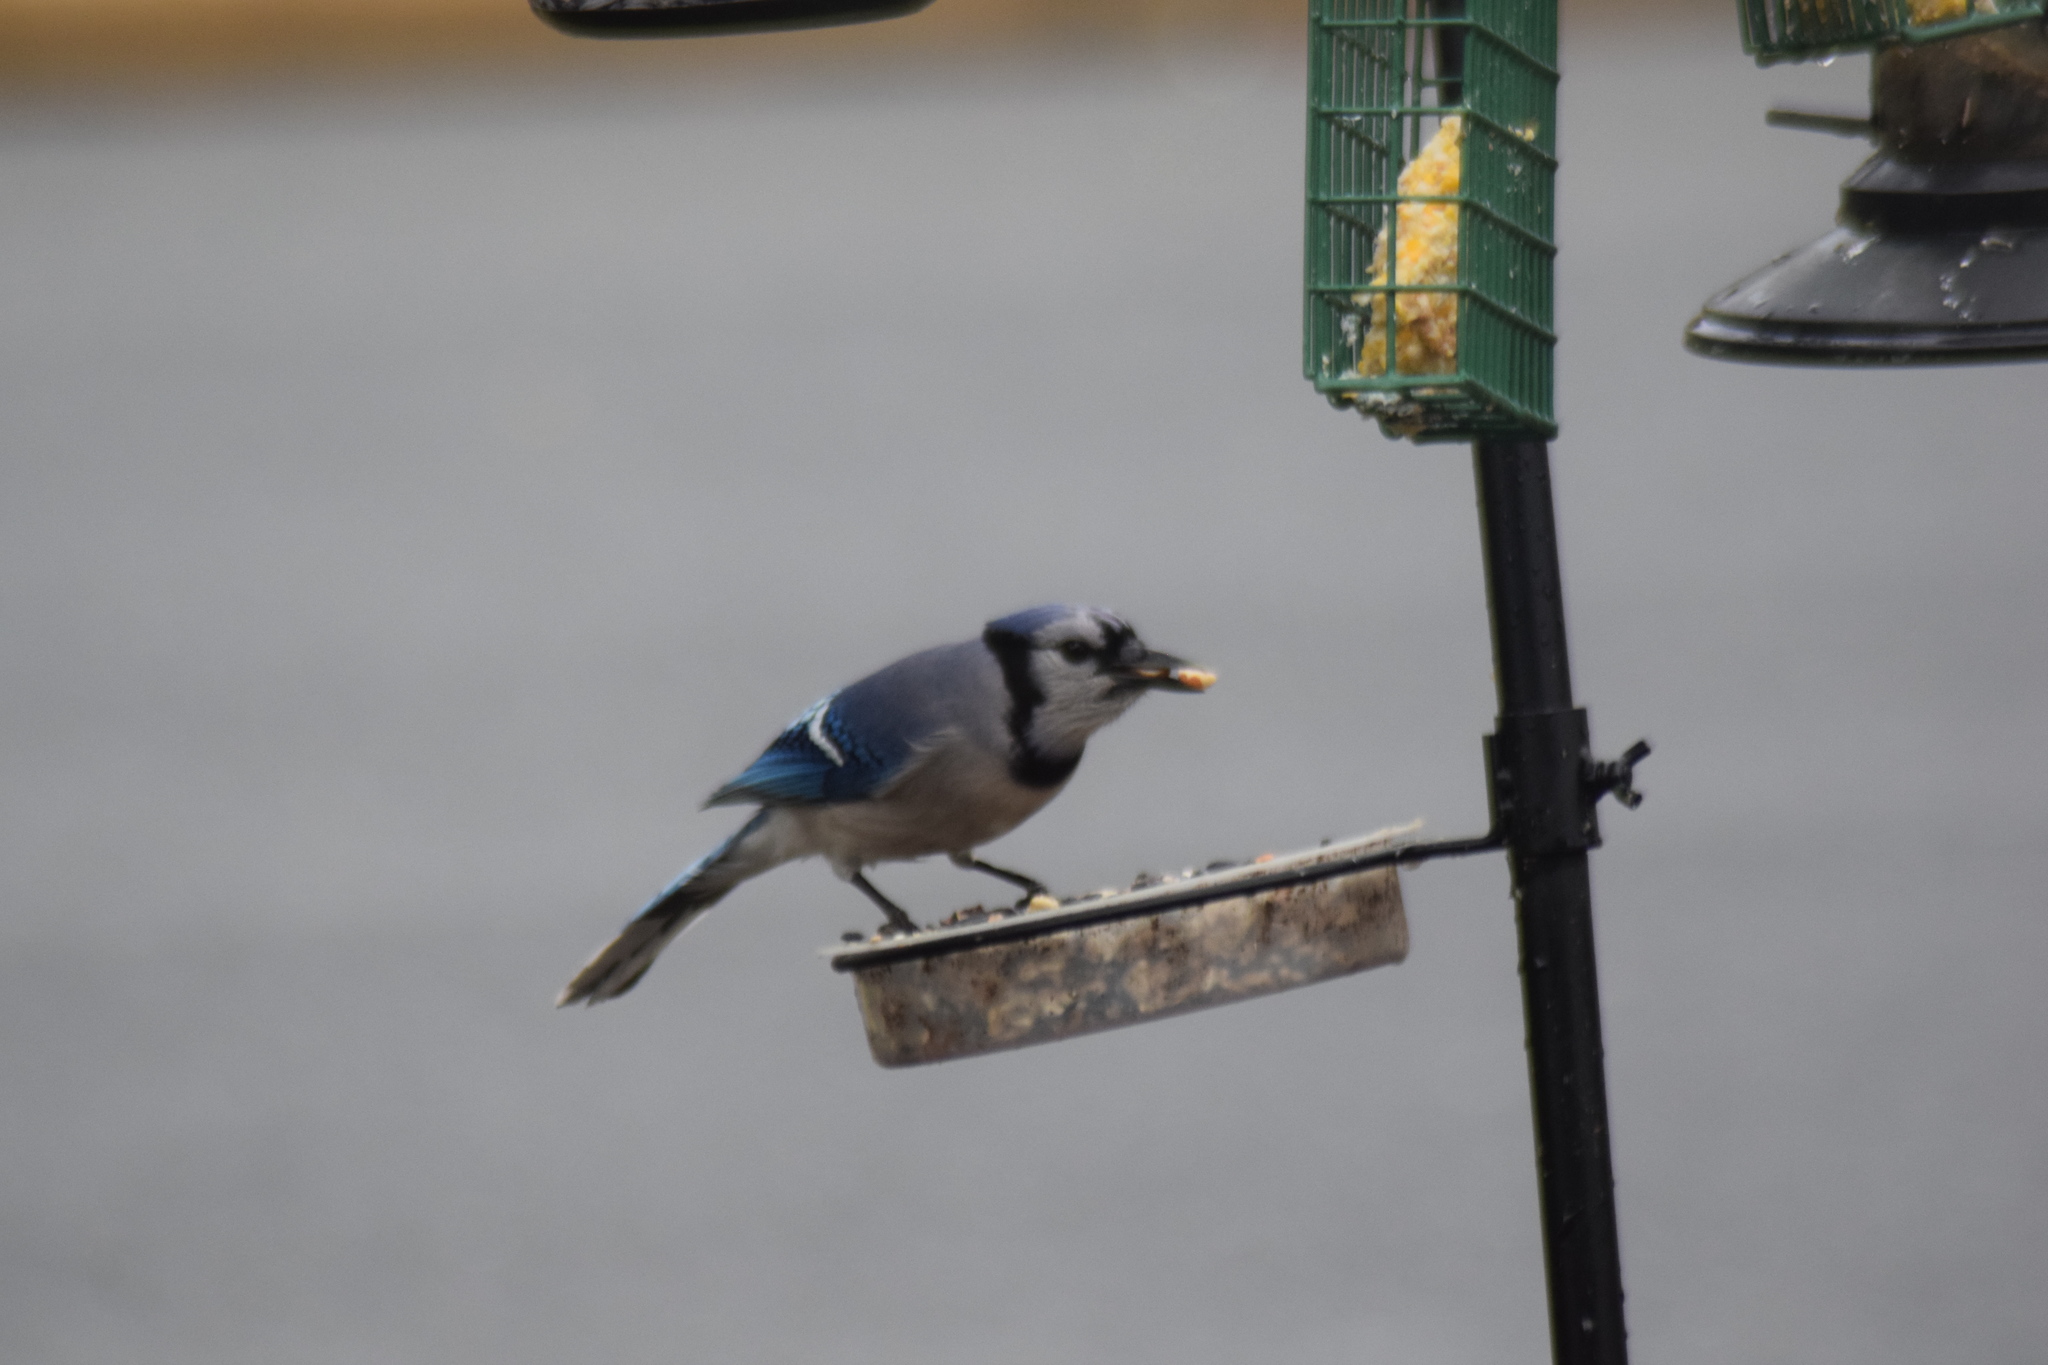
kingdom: Animalia
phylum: Chordata
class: Aves
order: Passeriformes
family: Corvidae
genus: Cyanocitta
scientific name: Cyanocitta cristata
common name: Blue jay
